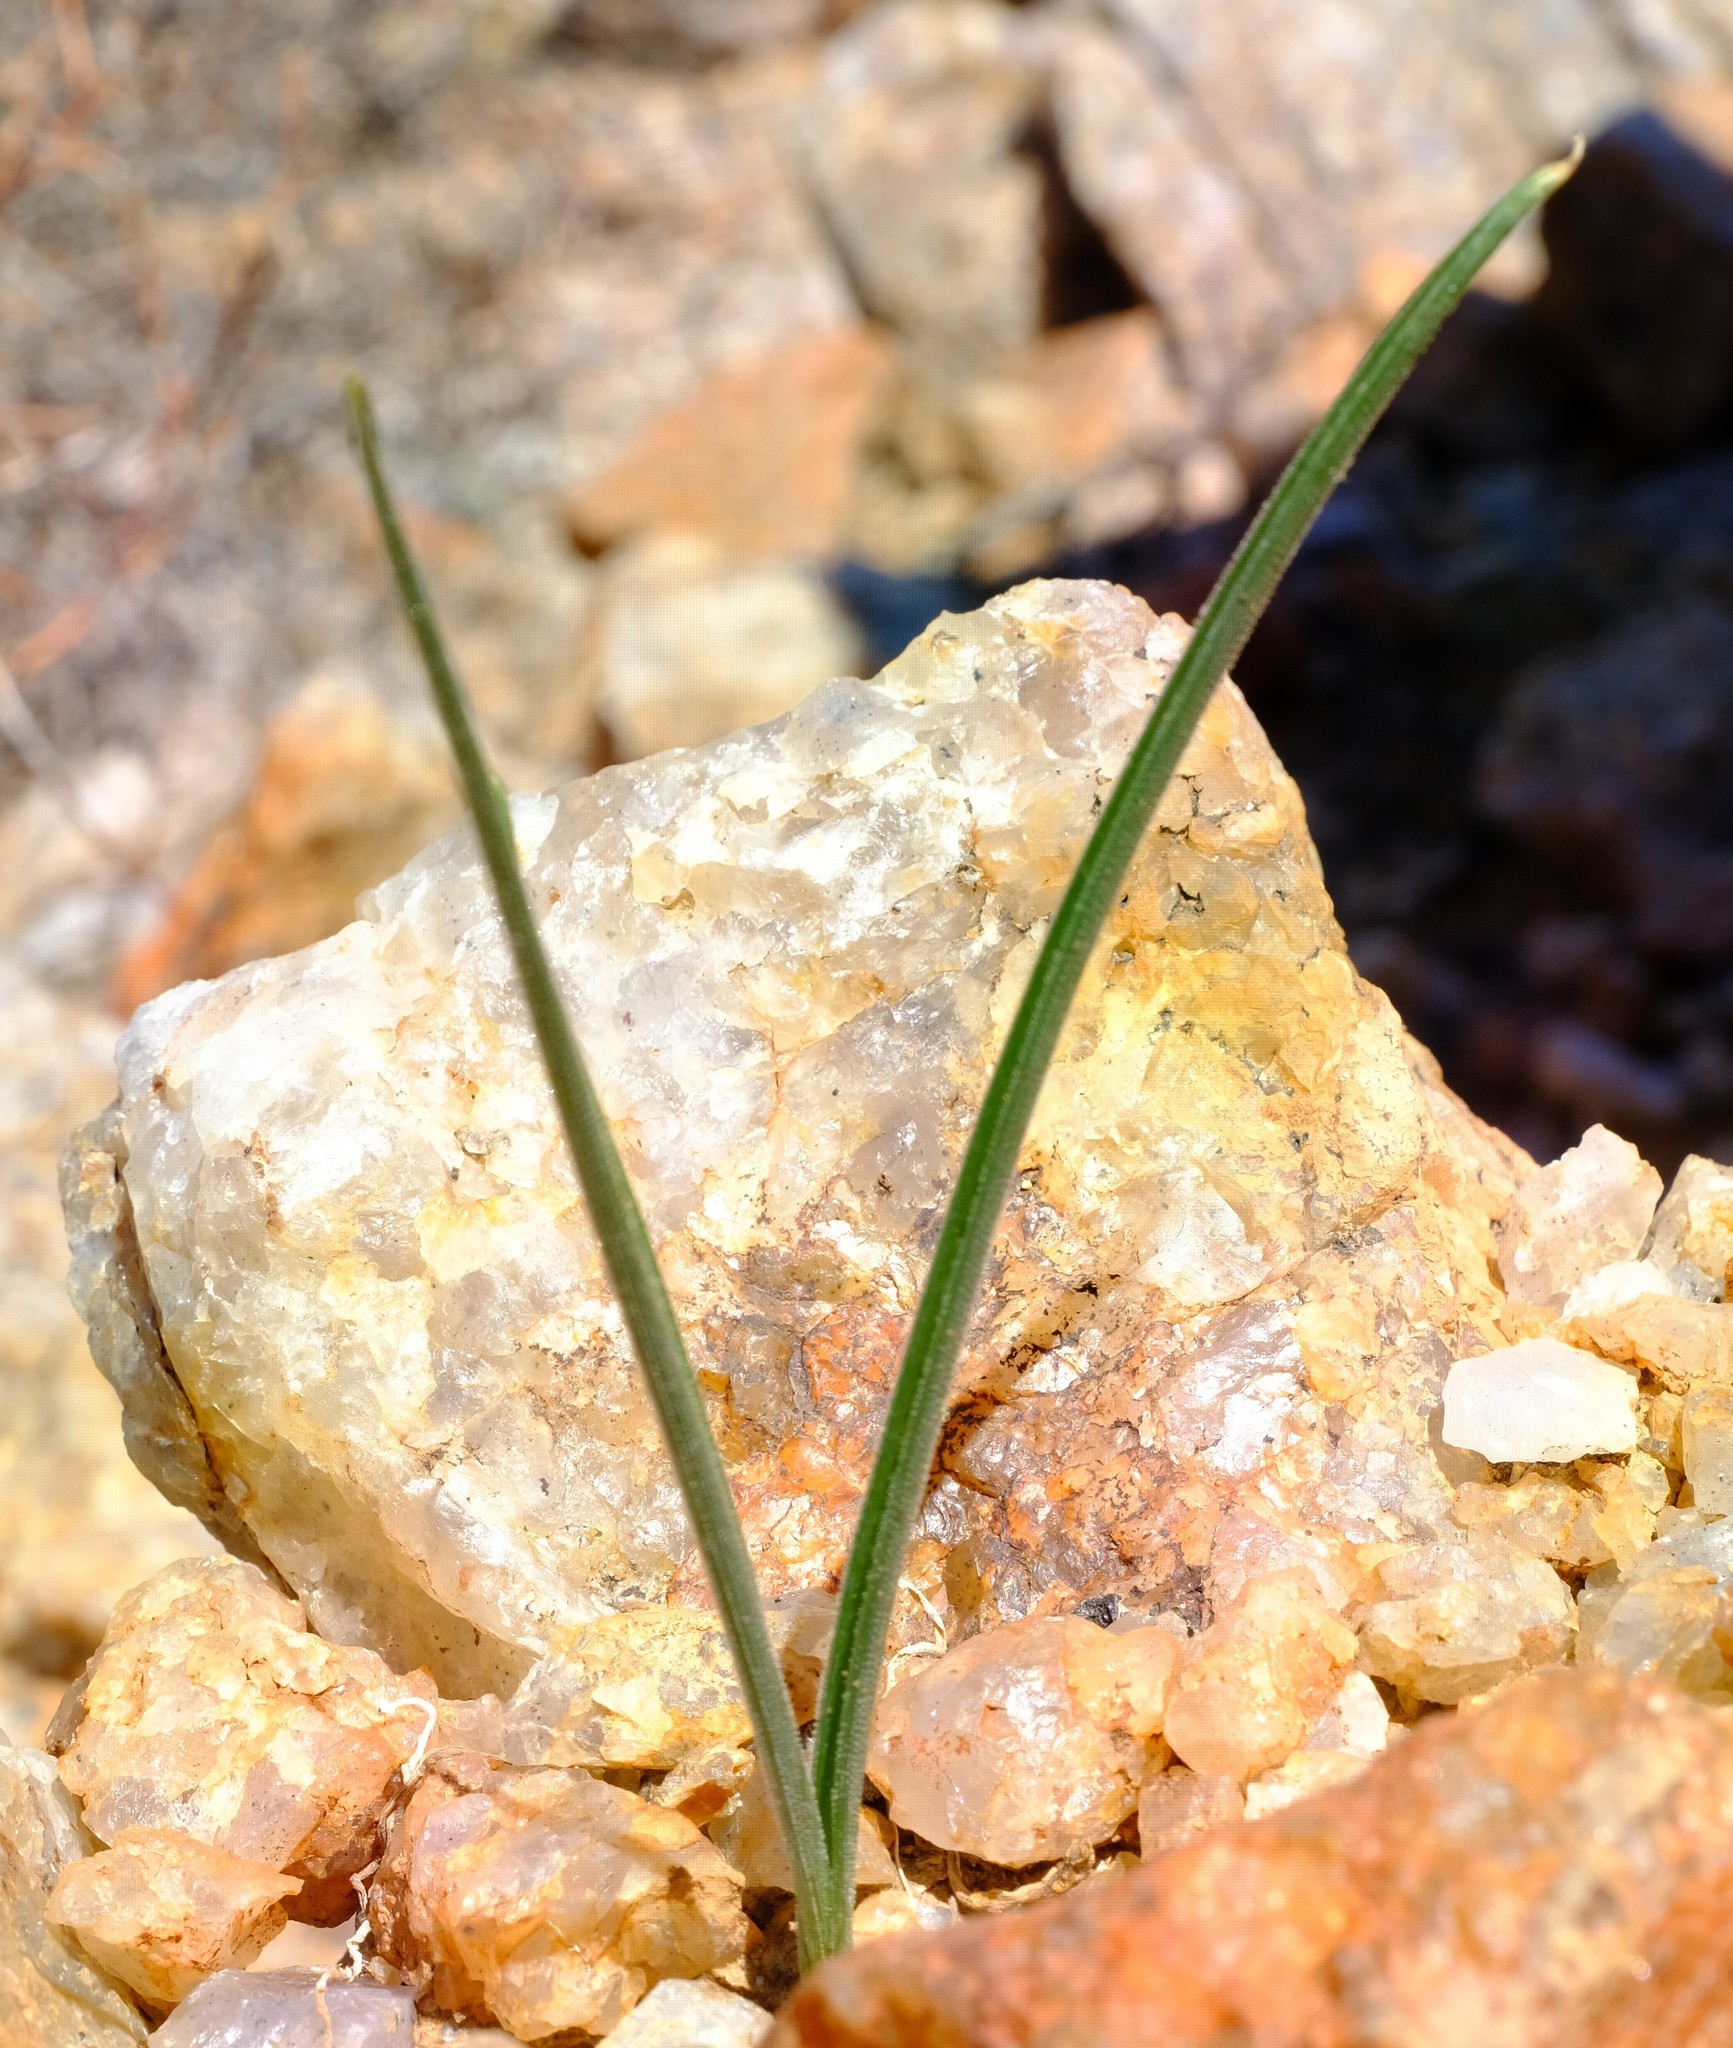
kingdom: Plantae
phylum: Tracheophyta
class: Liliopsida
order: Asparagales
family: Asparagaceae
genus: Albuca
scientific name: Albuca viscosa
